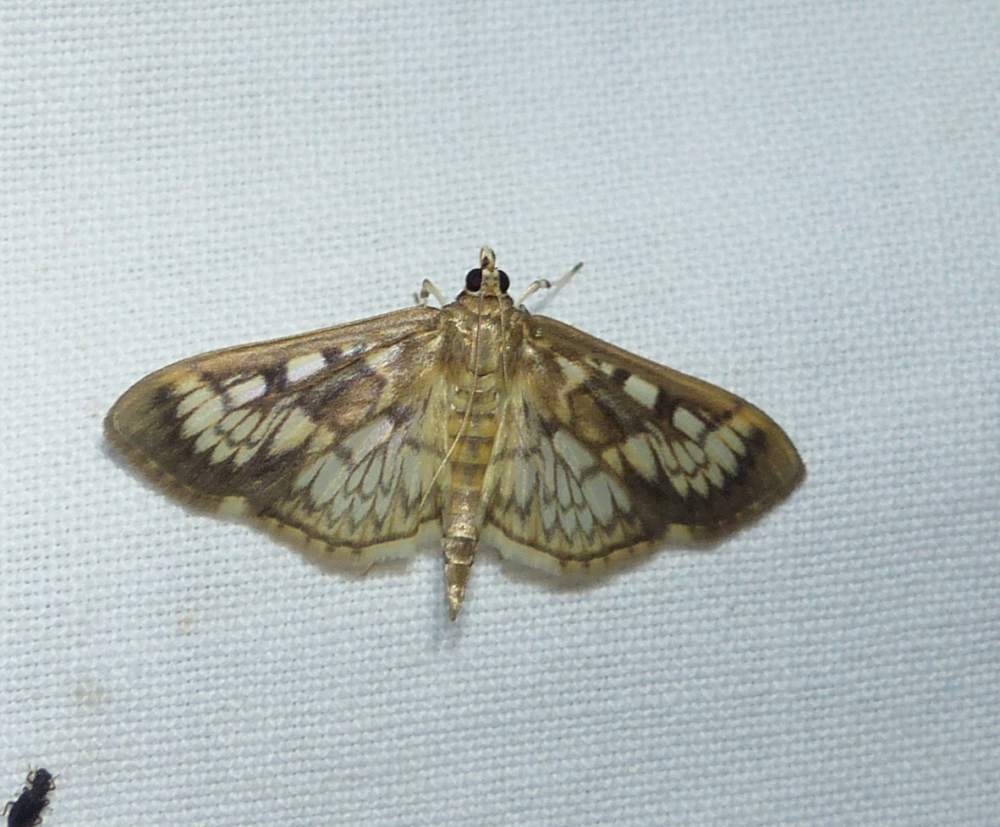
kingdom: Animalia
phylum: Arthropoda
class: Insecta
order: Lepidoptera
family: Crambidae
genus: Herpetogramma
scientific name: Herpetogramma thestealis
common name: Zigzag herpetogramma moth
